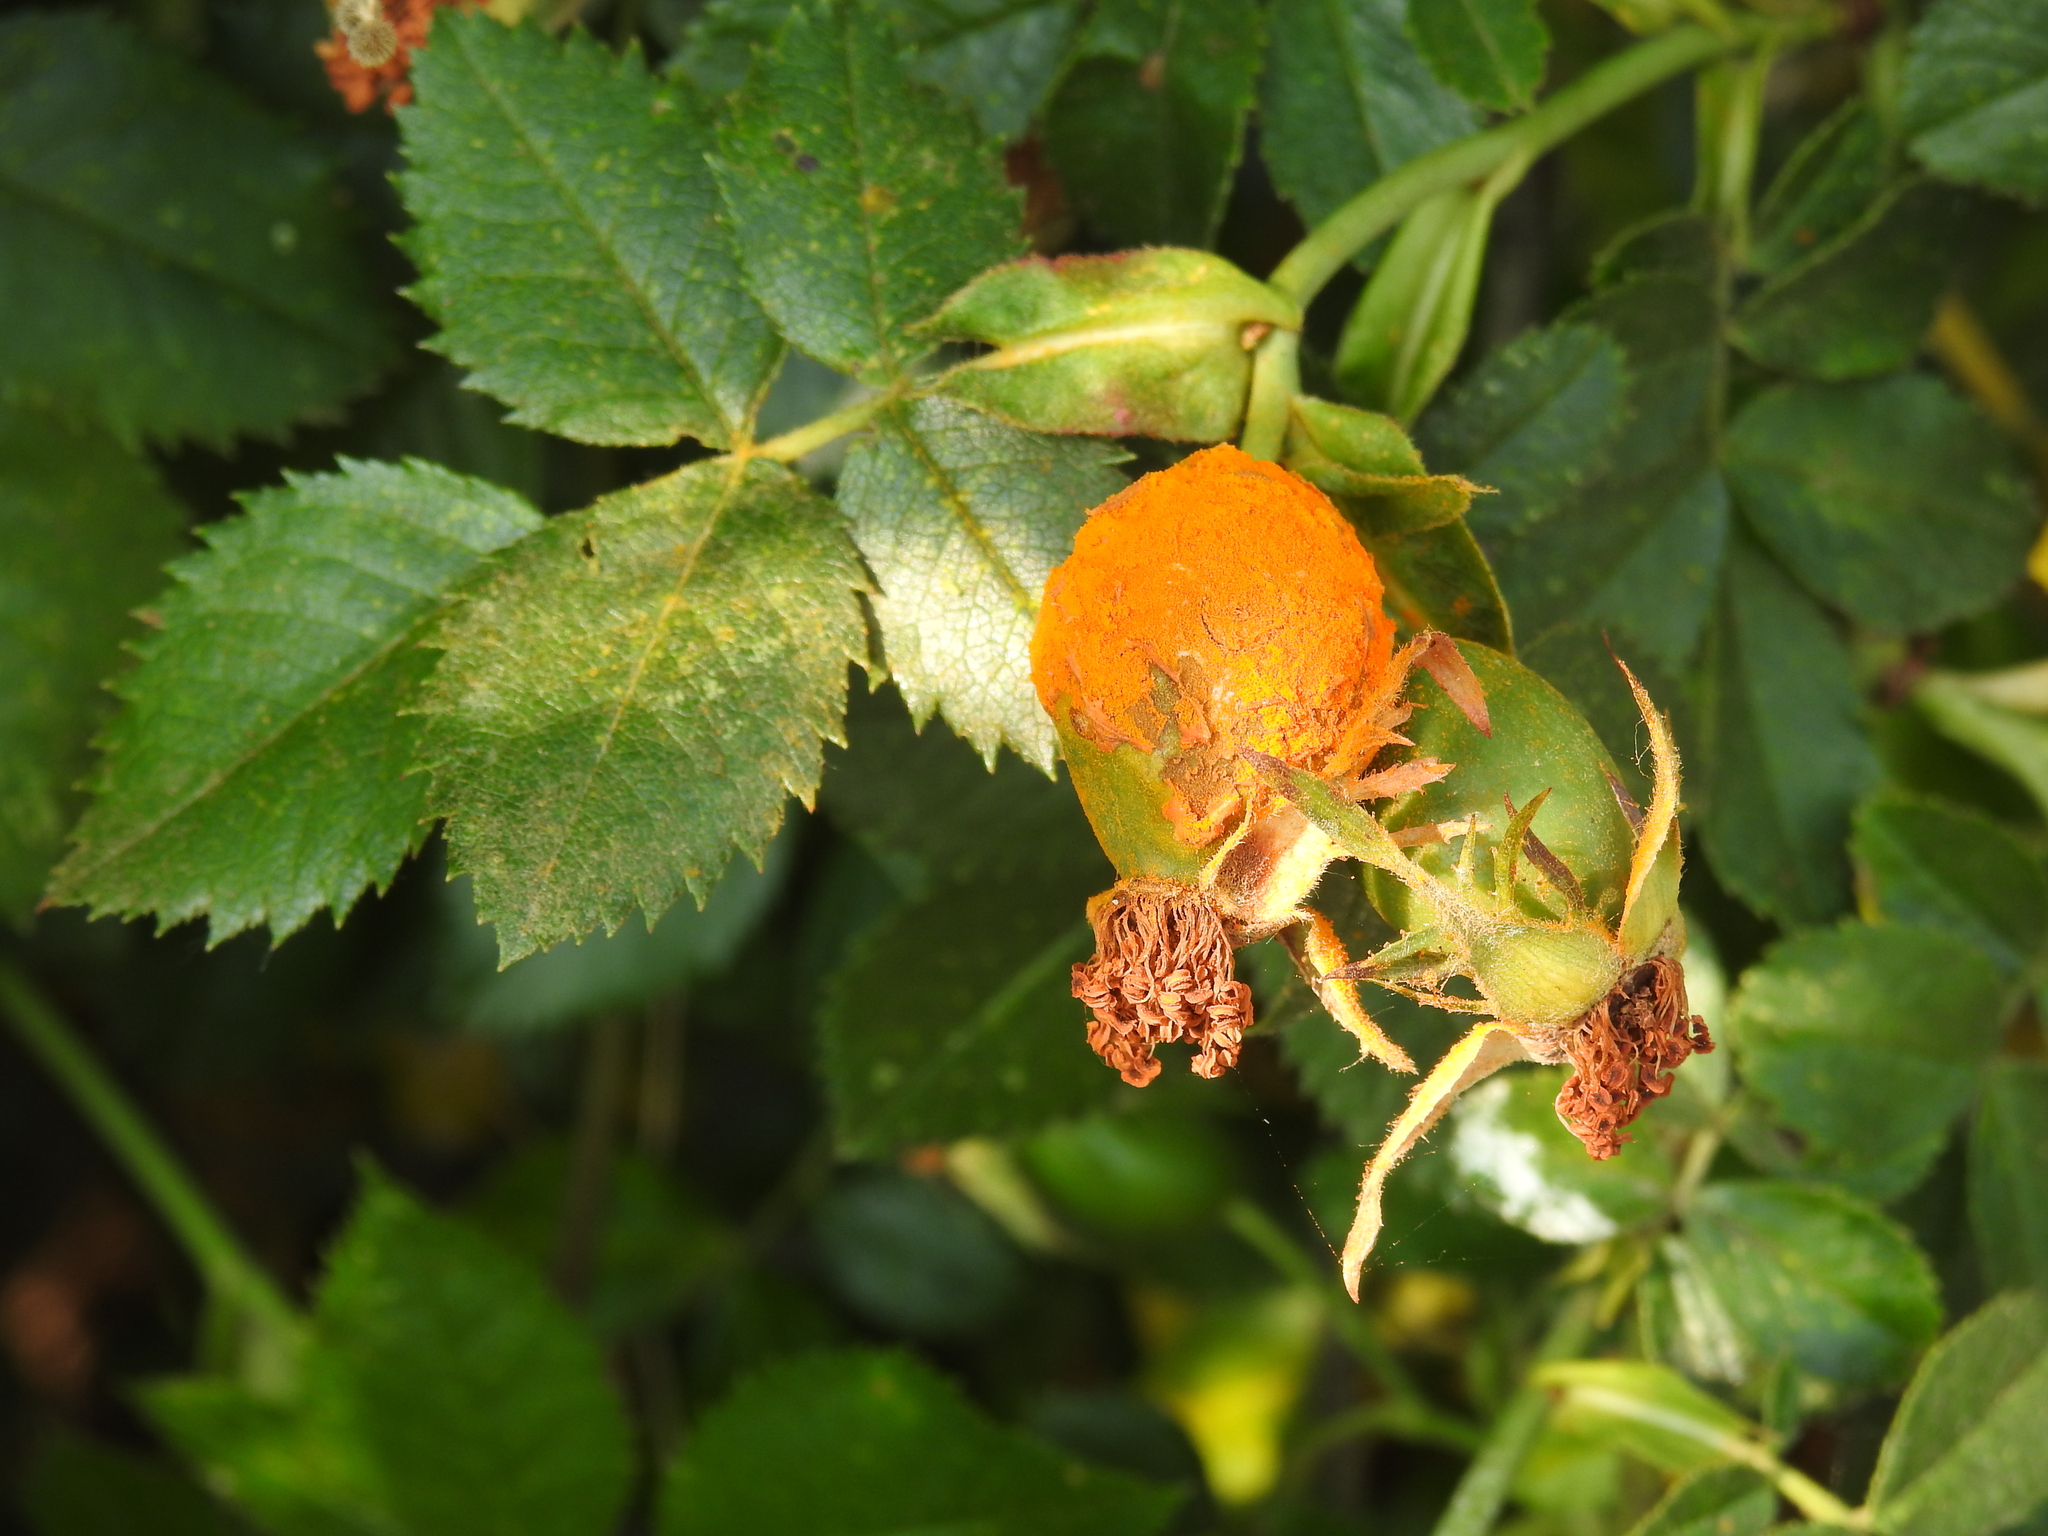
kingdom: Fungi
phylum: Basidiomycota
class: Pucciniomycetes
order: Pucciniales
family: Phragmidiaceae
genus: Phragmidium
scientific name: Phragmidium
